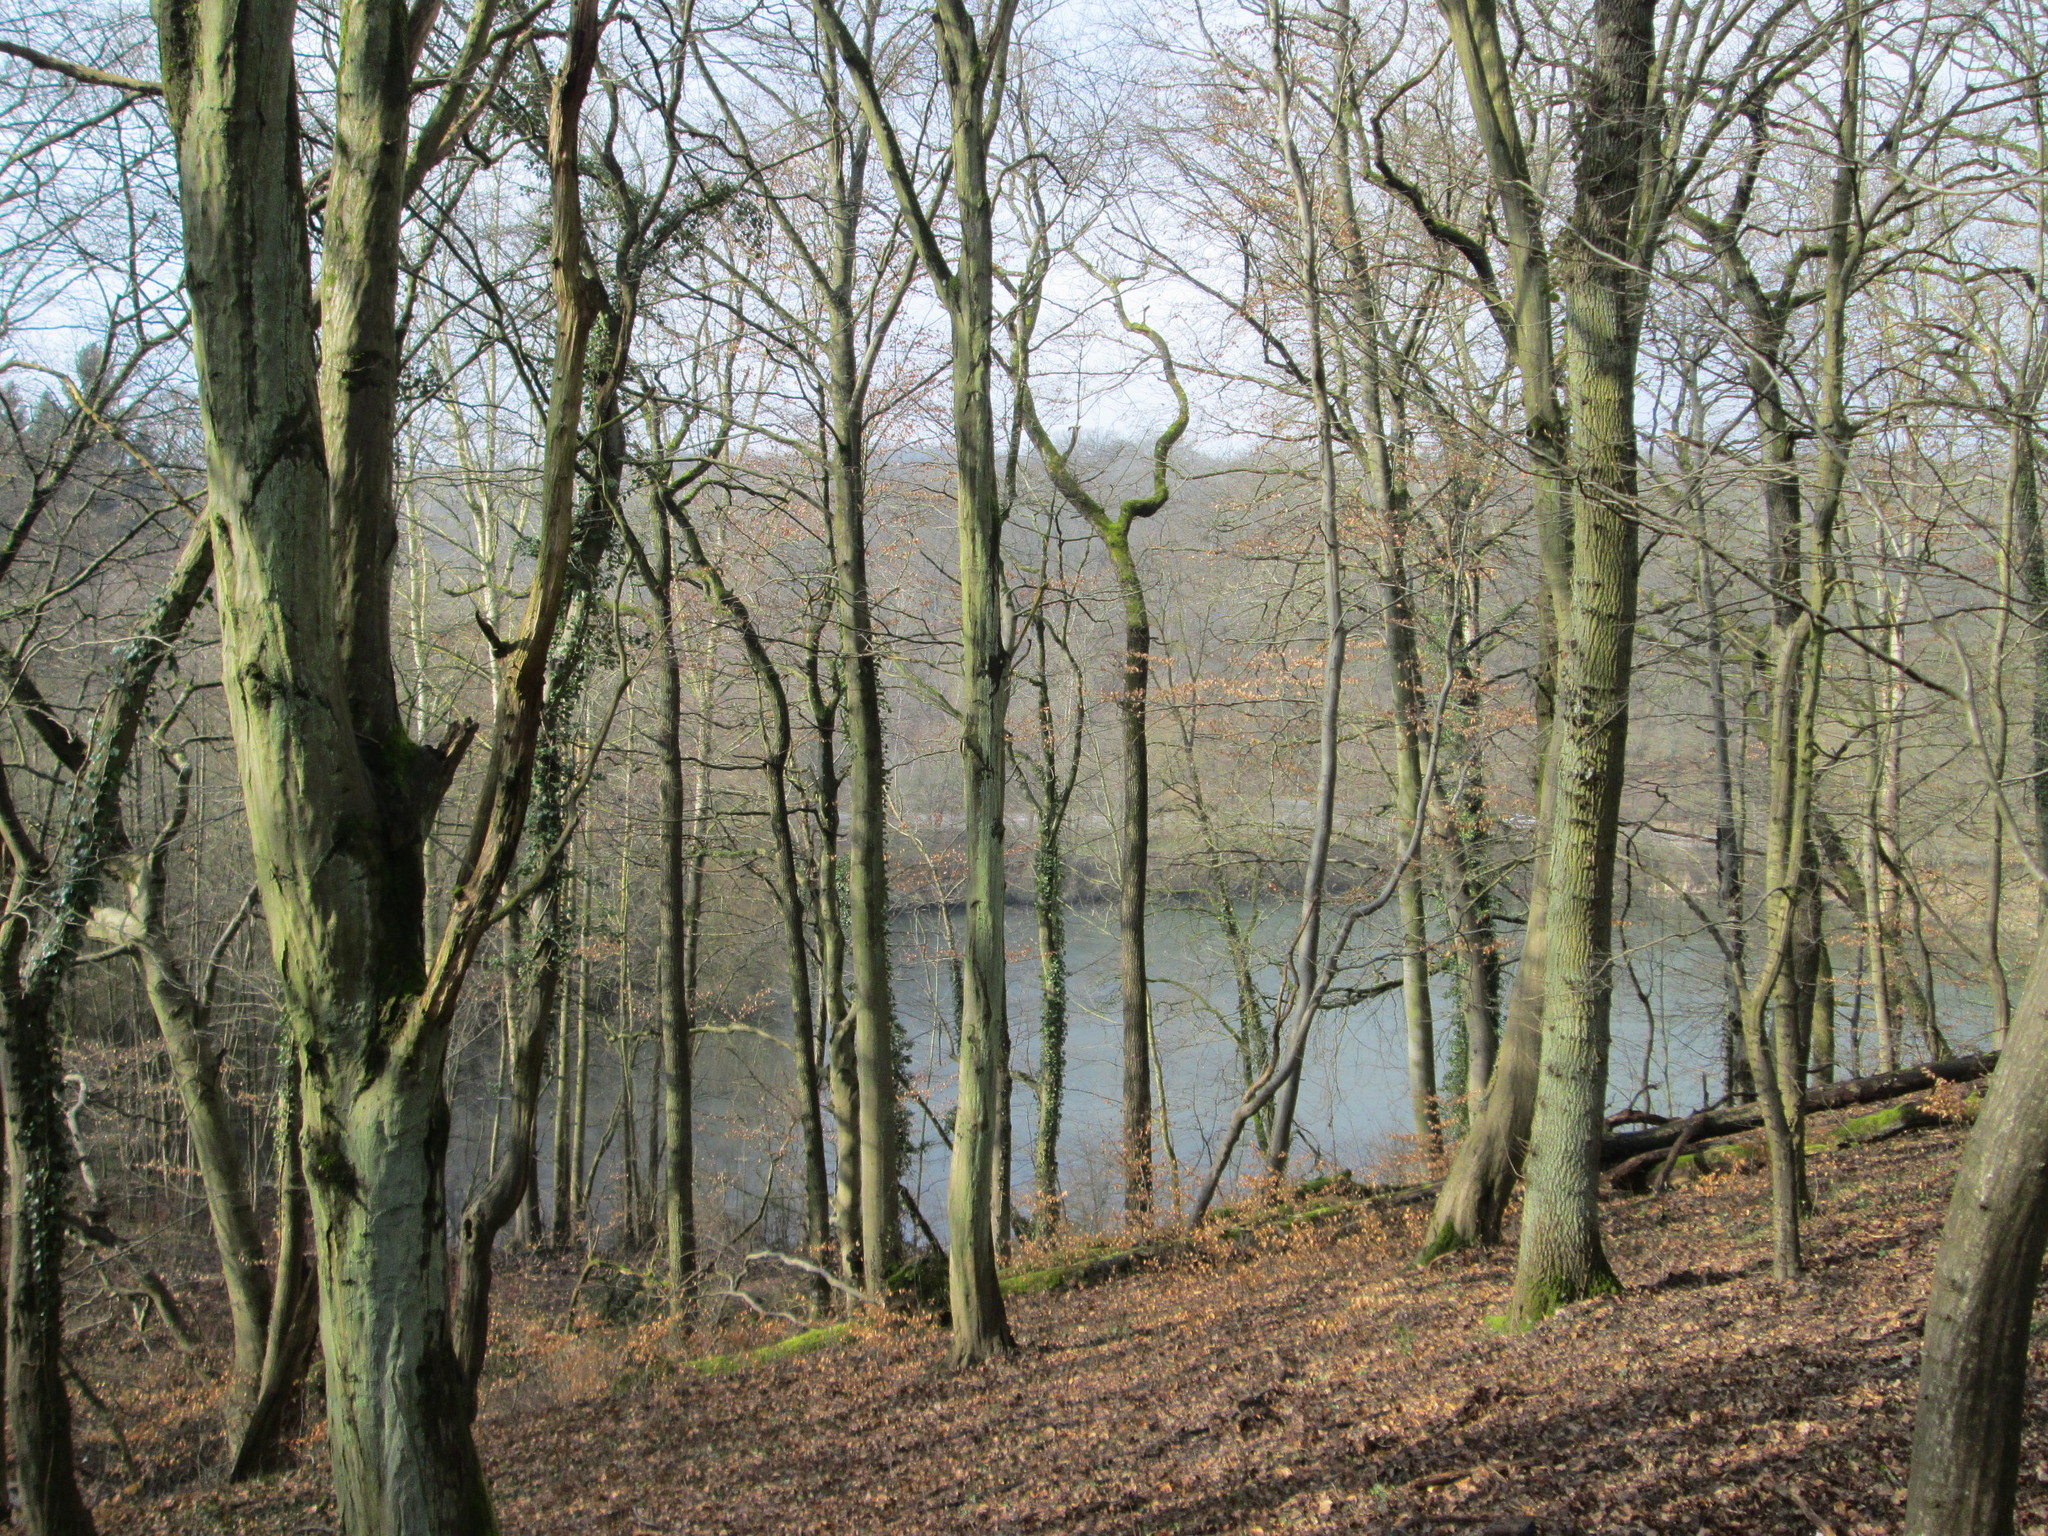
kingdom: Plantae
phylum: Tracheophyta
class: Magnoliopsida
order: Fagales
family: Betulaceae
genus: Carpinus
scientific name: Carpinus betulus
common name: Hornbeam
